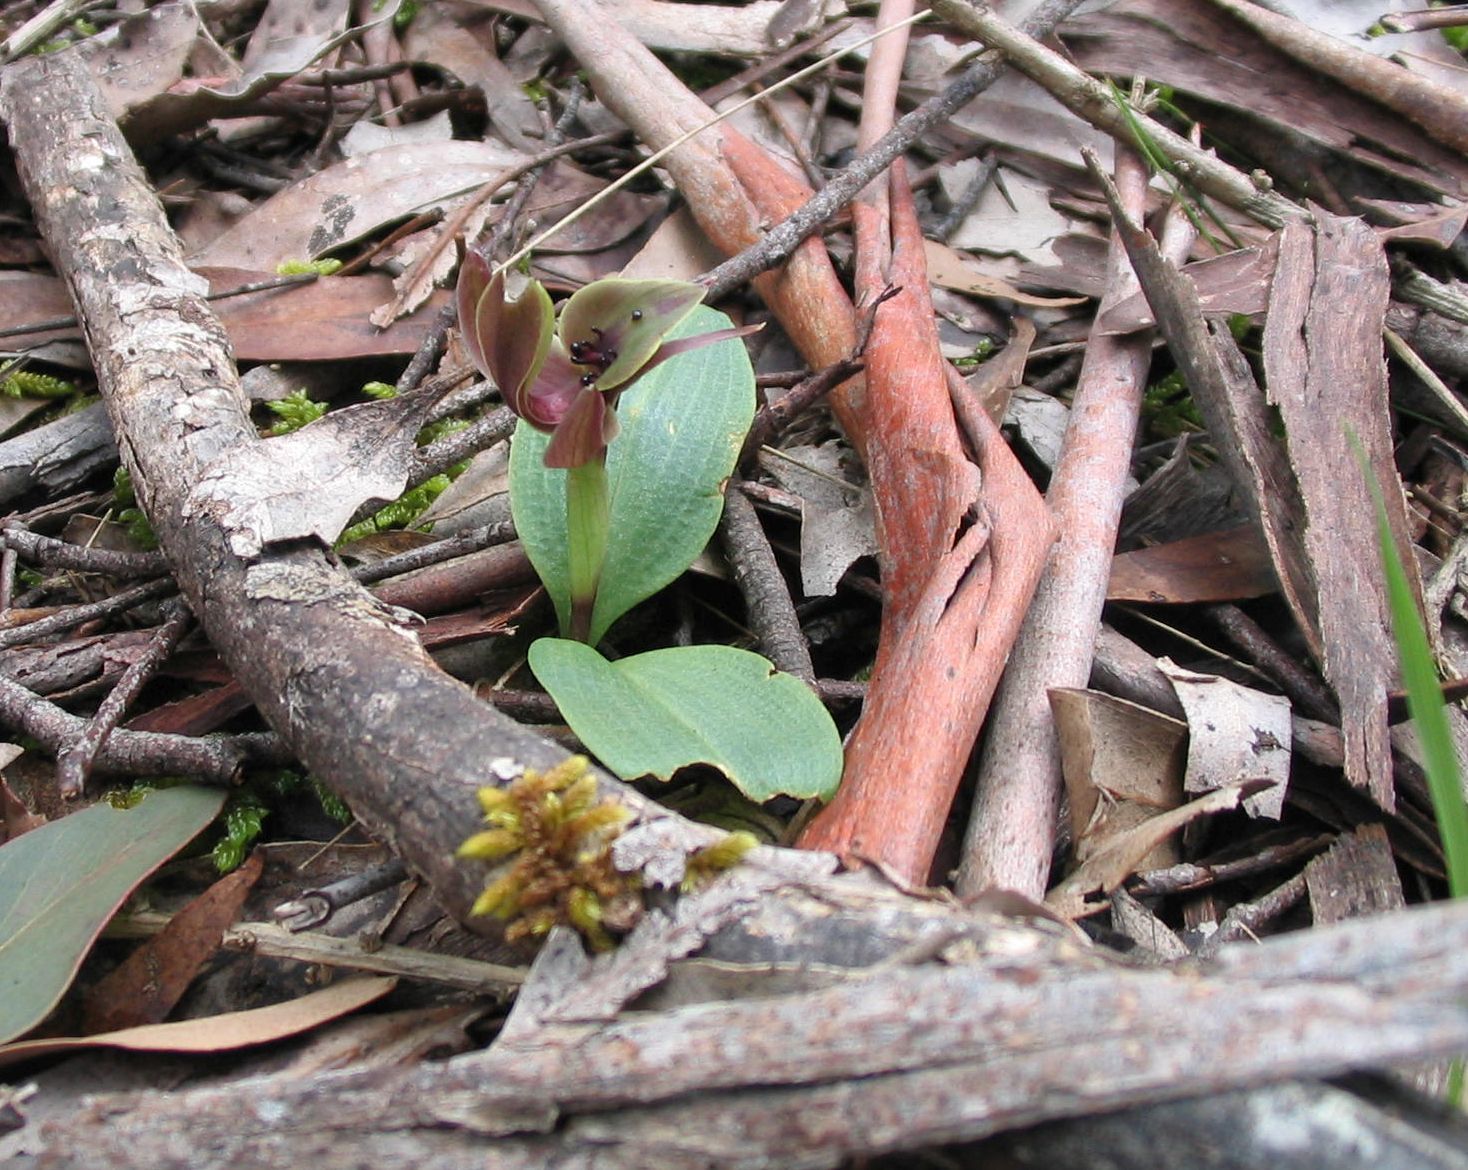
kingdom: Plantae
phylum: Tracheophyta
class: Liliopsida
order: Asparagales
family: Orchidaceae
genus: Chiloglottis
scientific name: Chiloglottis valida
